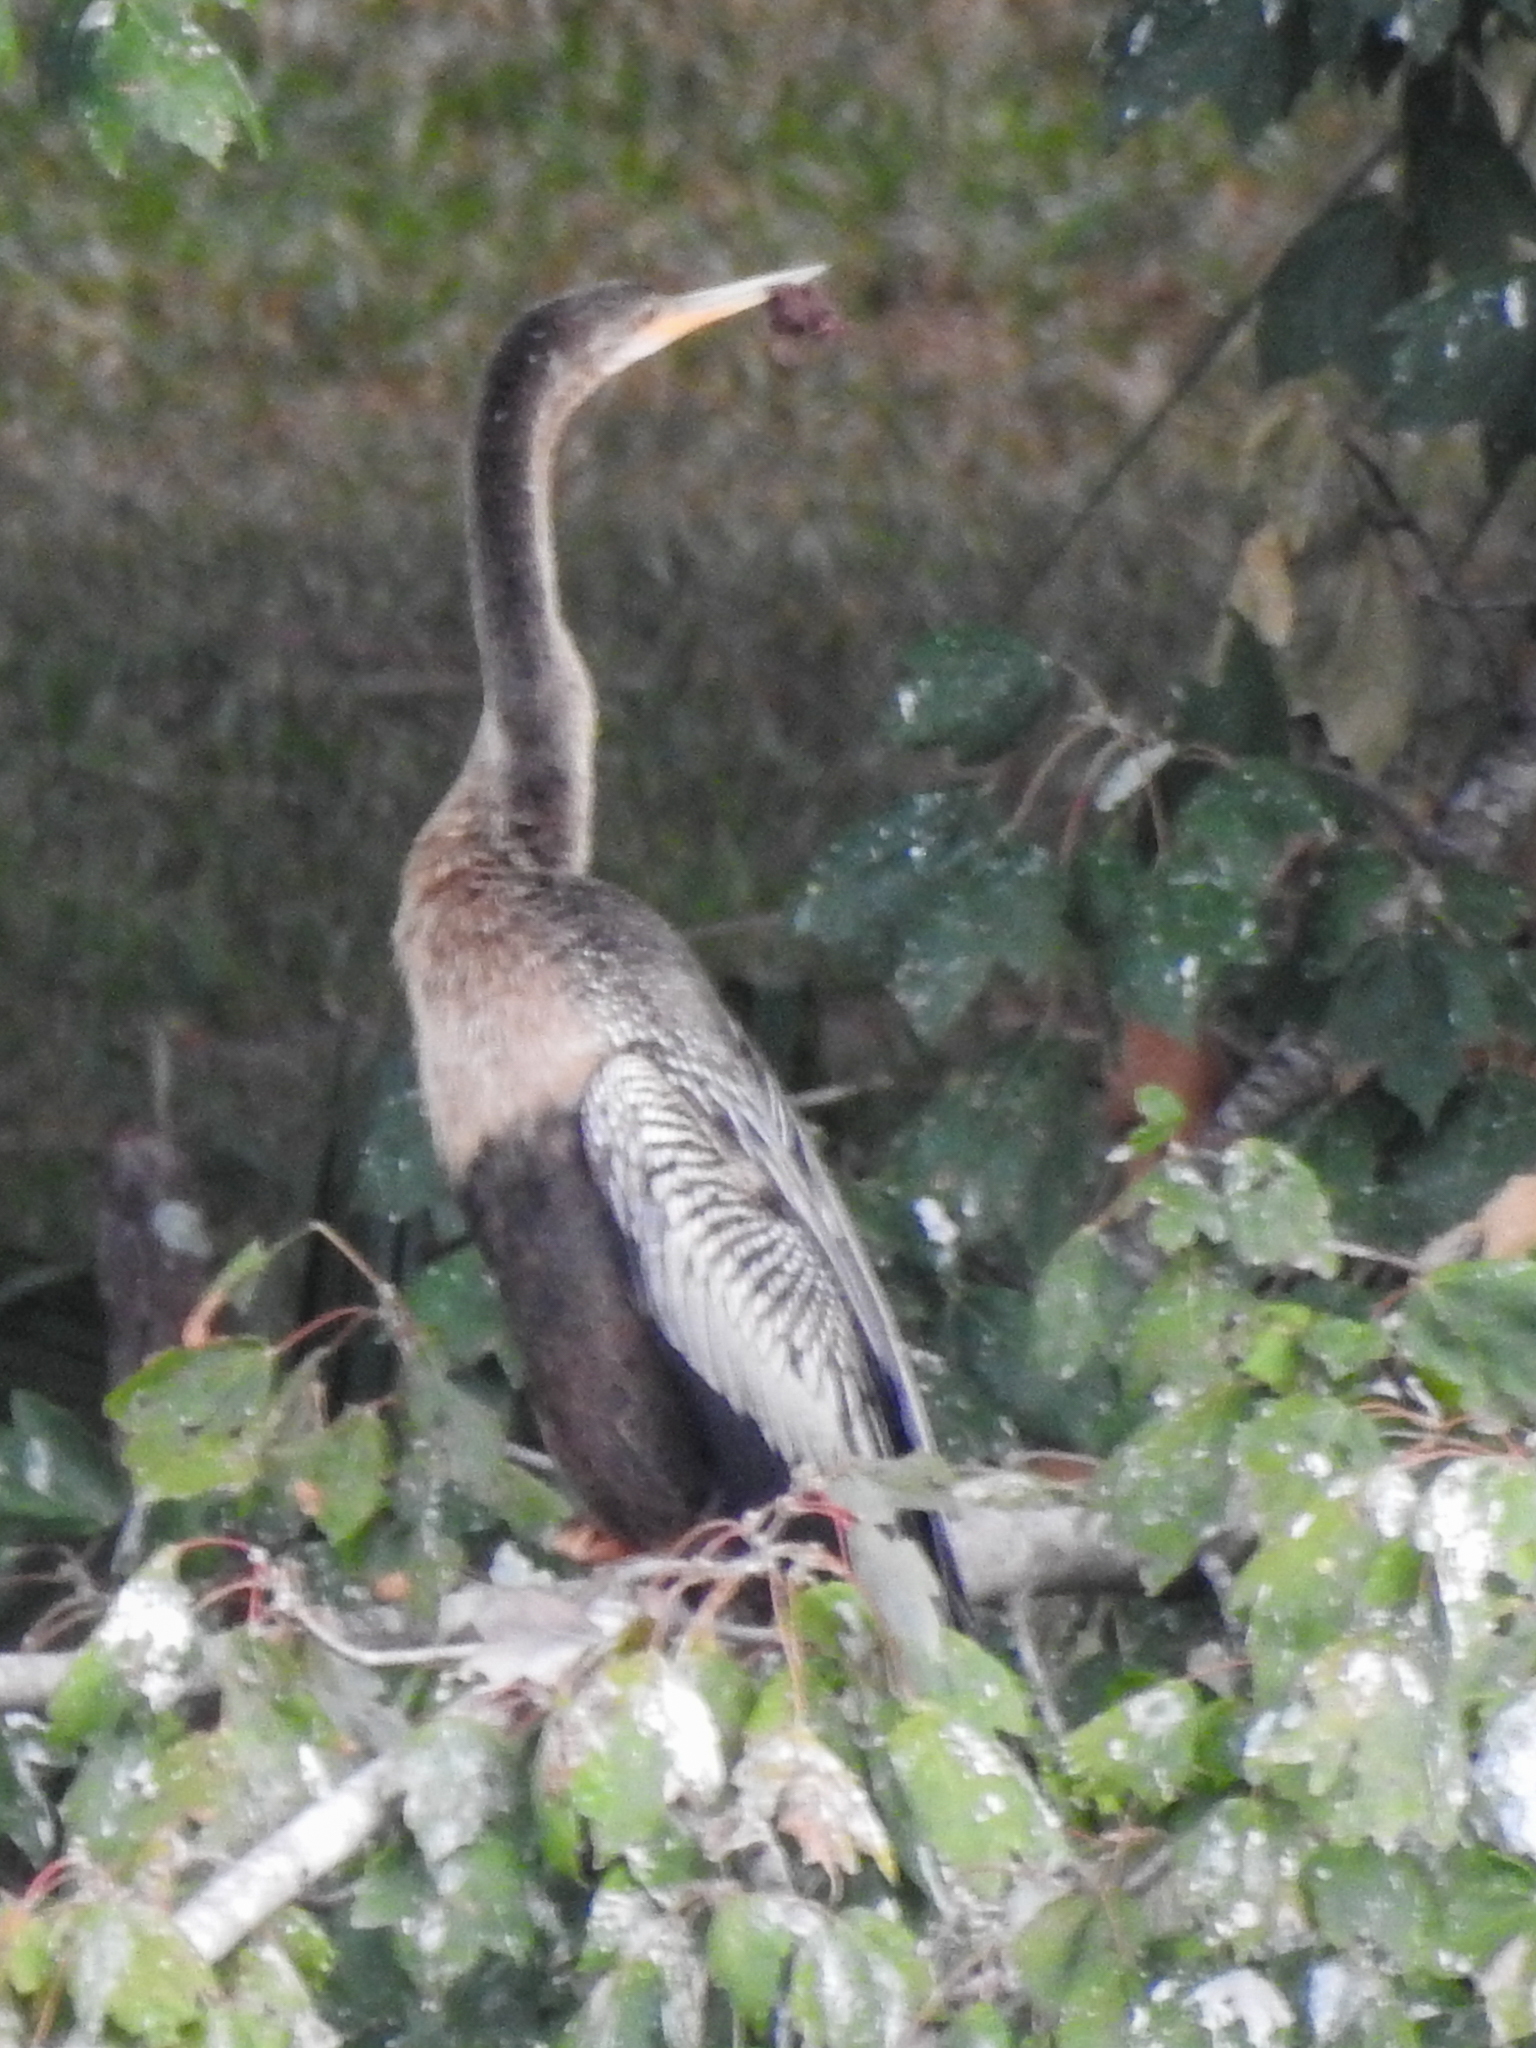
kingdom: Animalia
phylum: Chordata
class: Aves
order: Suliformes
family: Anhingidae
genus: Anhinga
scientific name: Anhinga anhinga
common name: Anhinga
